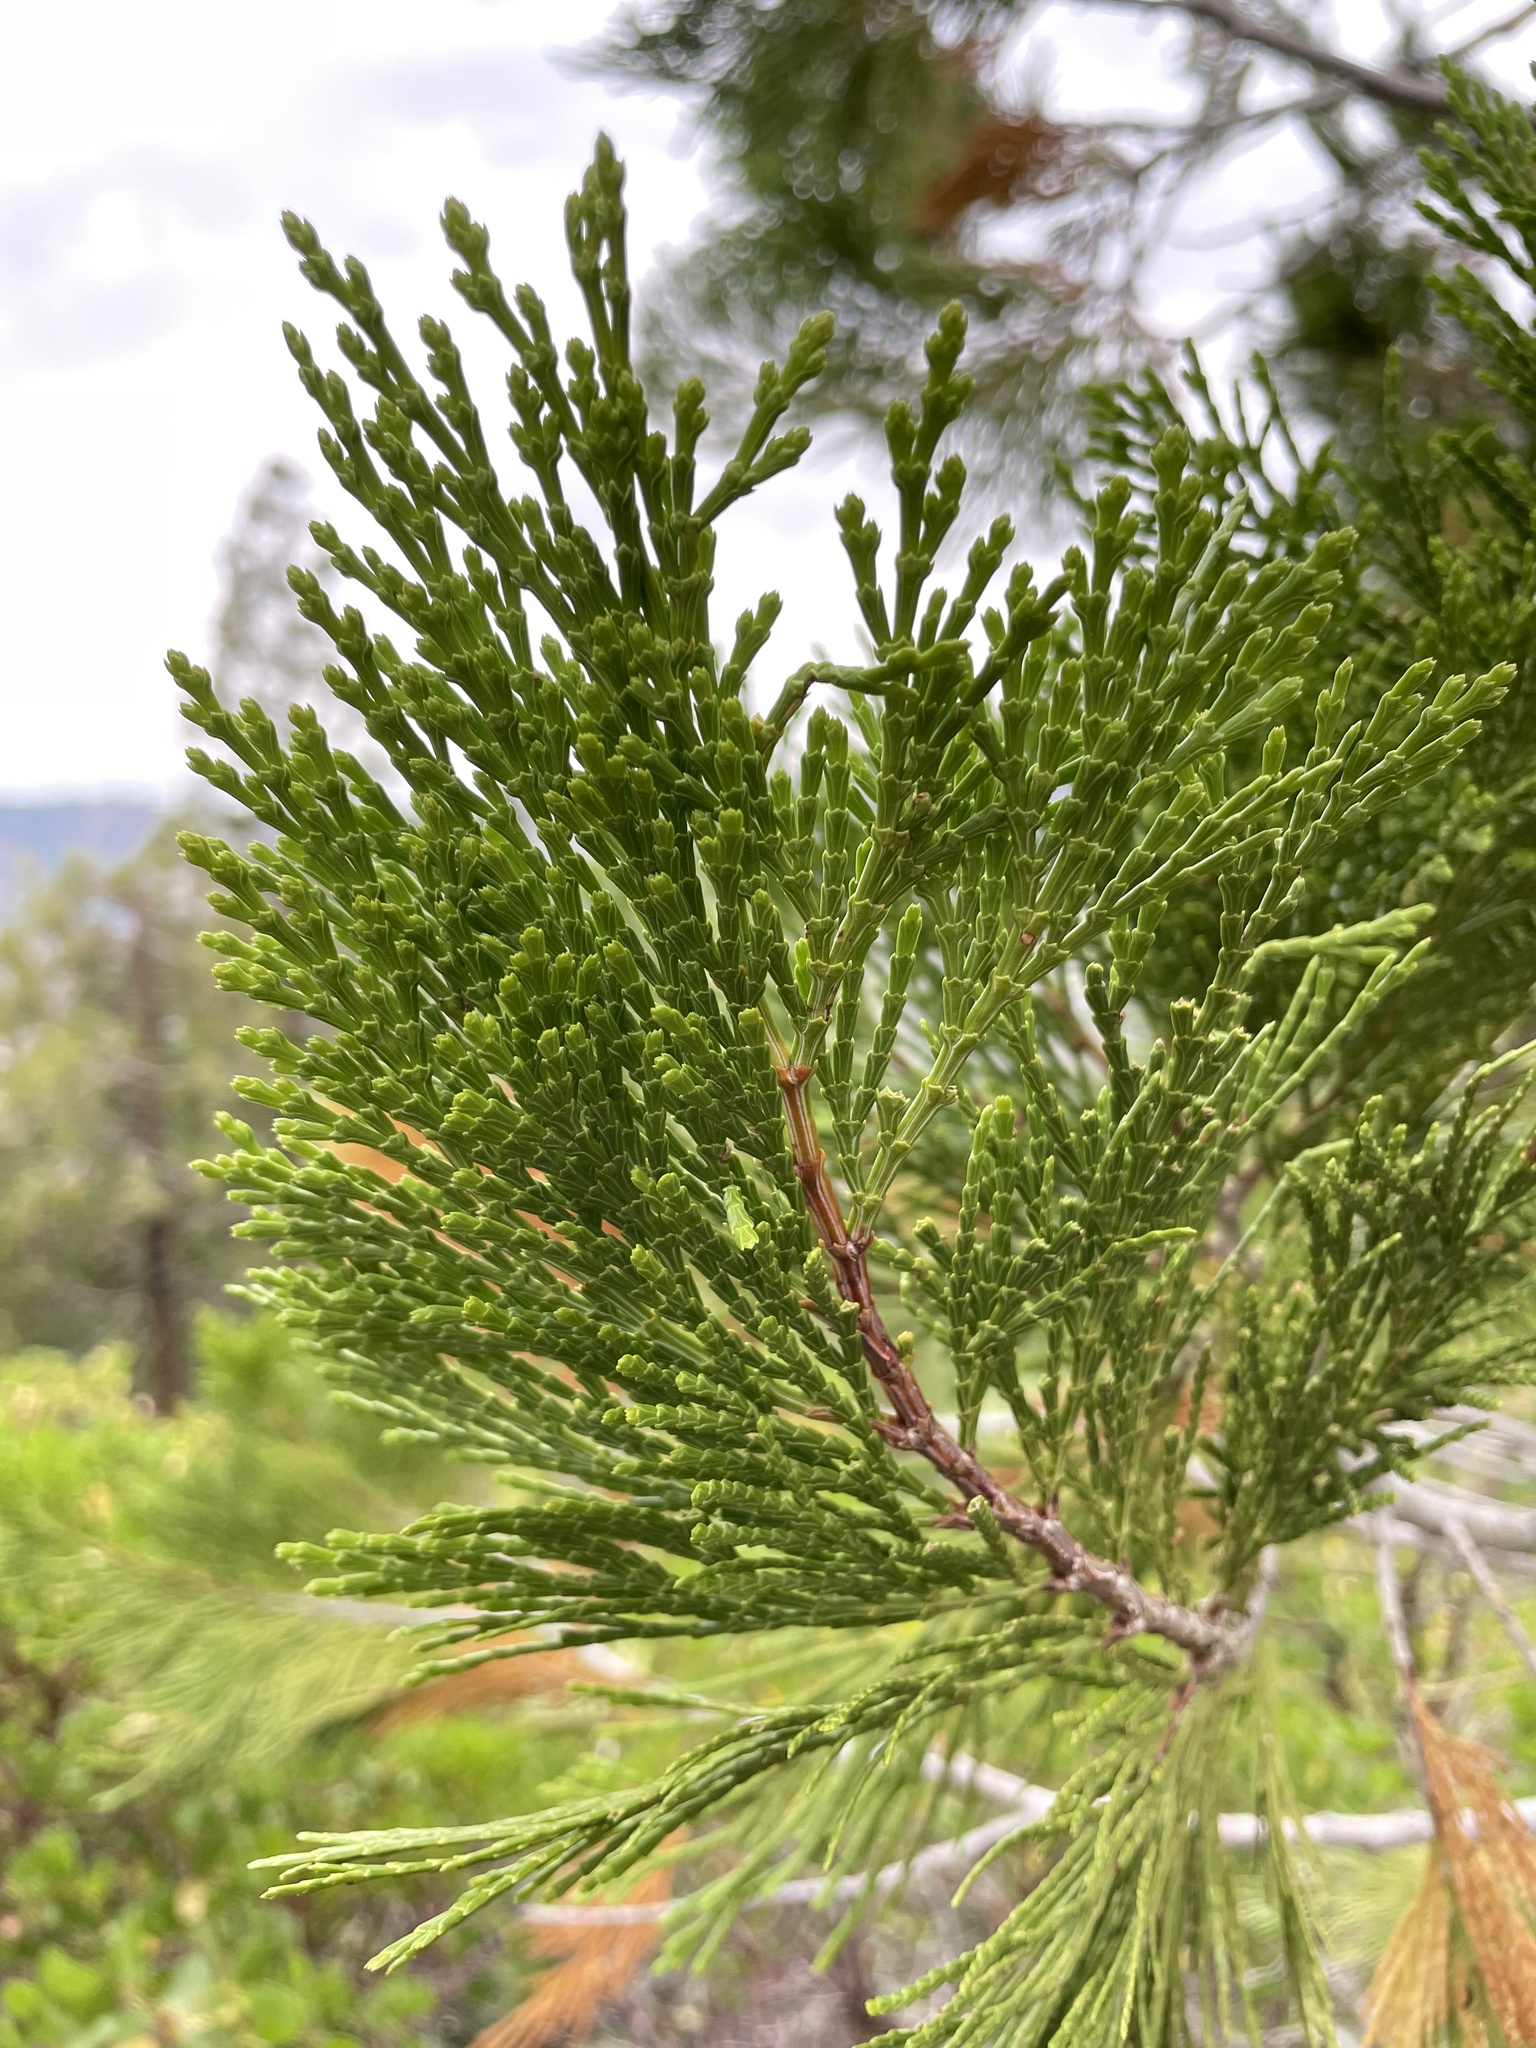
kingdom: Plantae
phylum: Tracheophyta
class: Pinopsida
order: Pinales
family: Cupressaceae
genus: Calocedrus
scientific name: Calocedrus decurrens
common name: Californian incense-cedar
